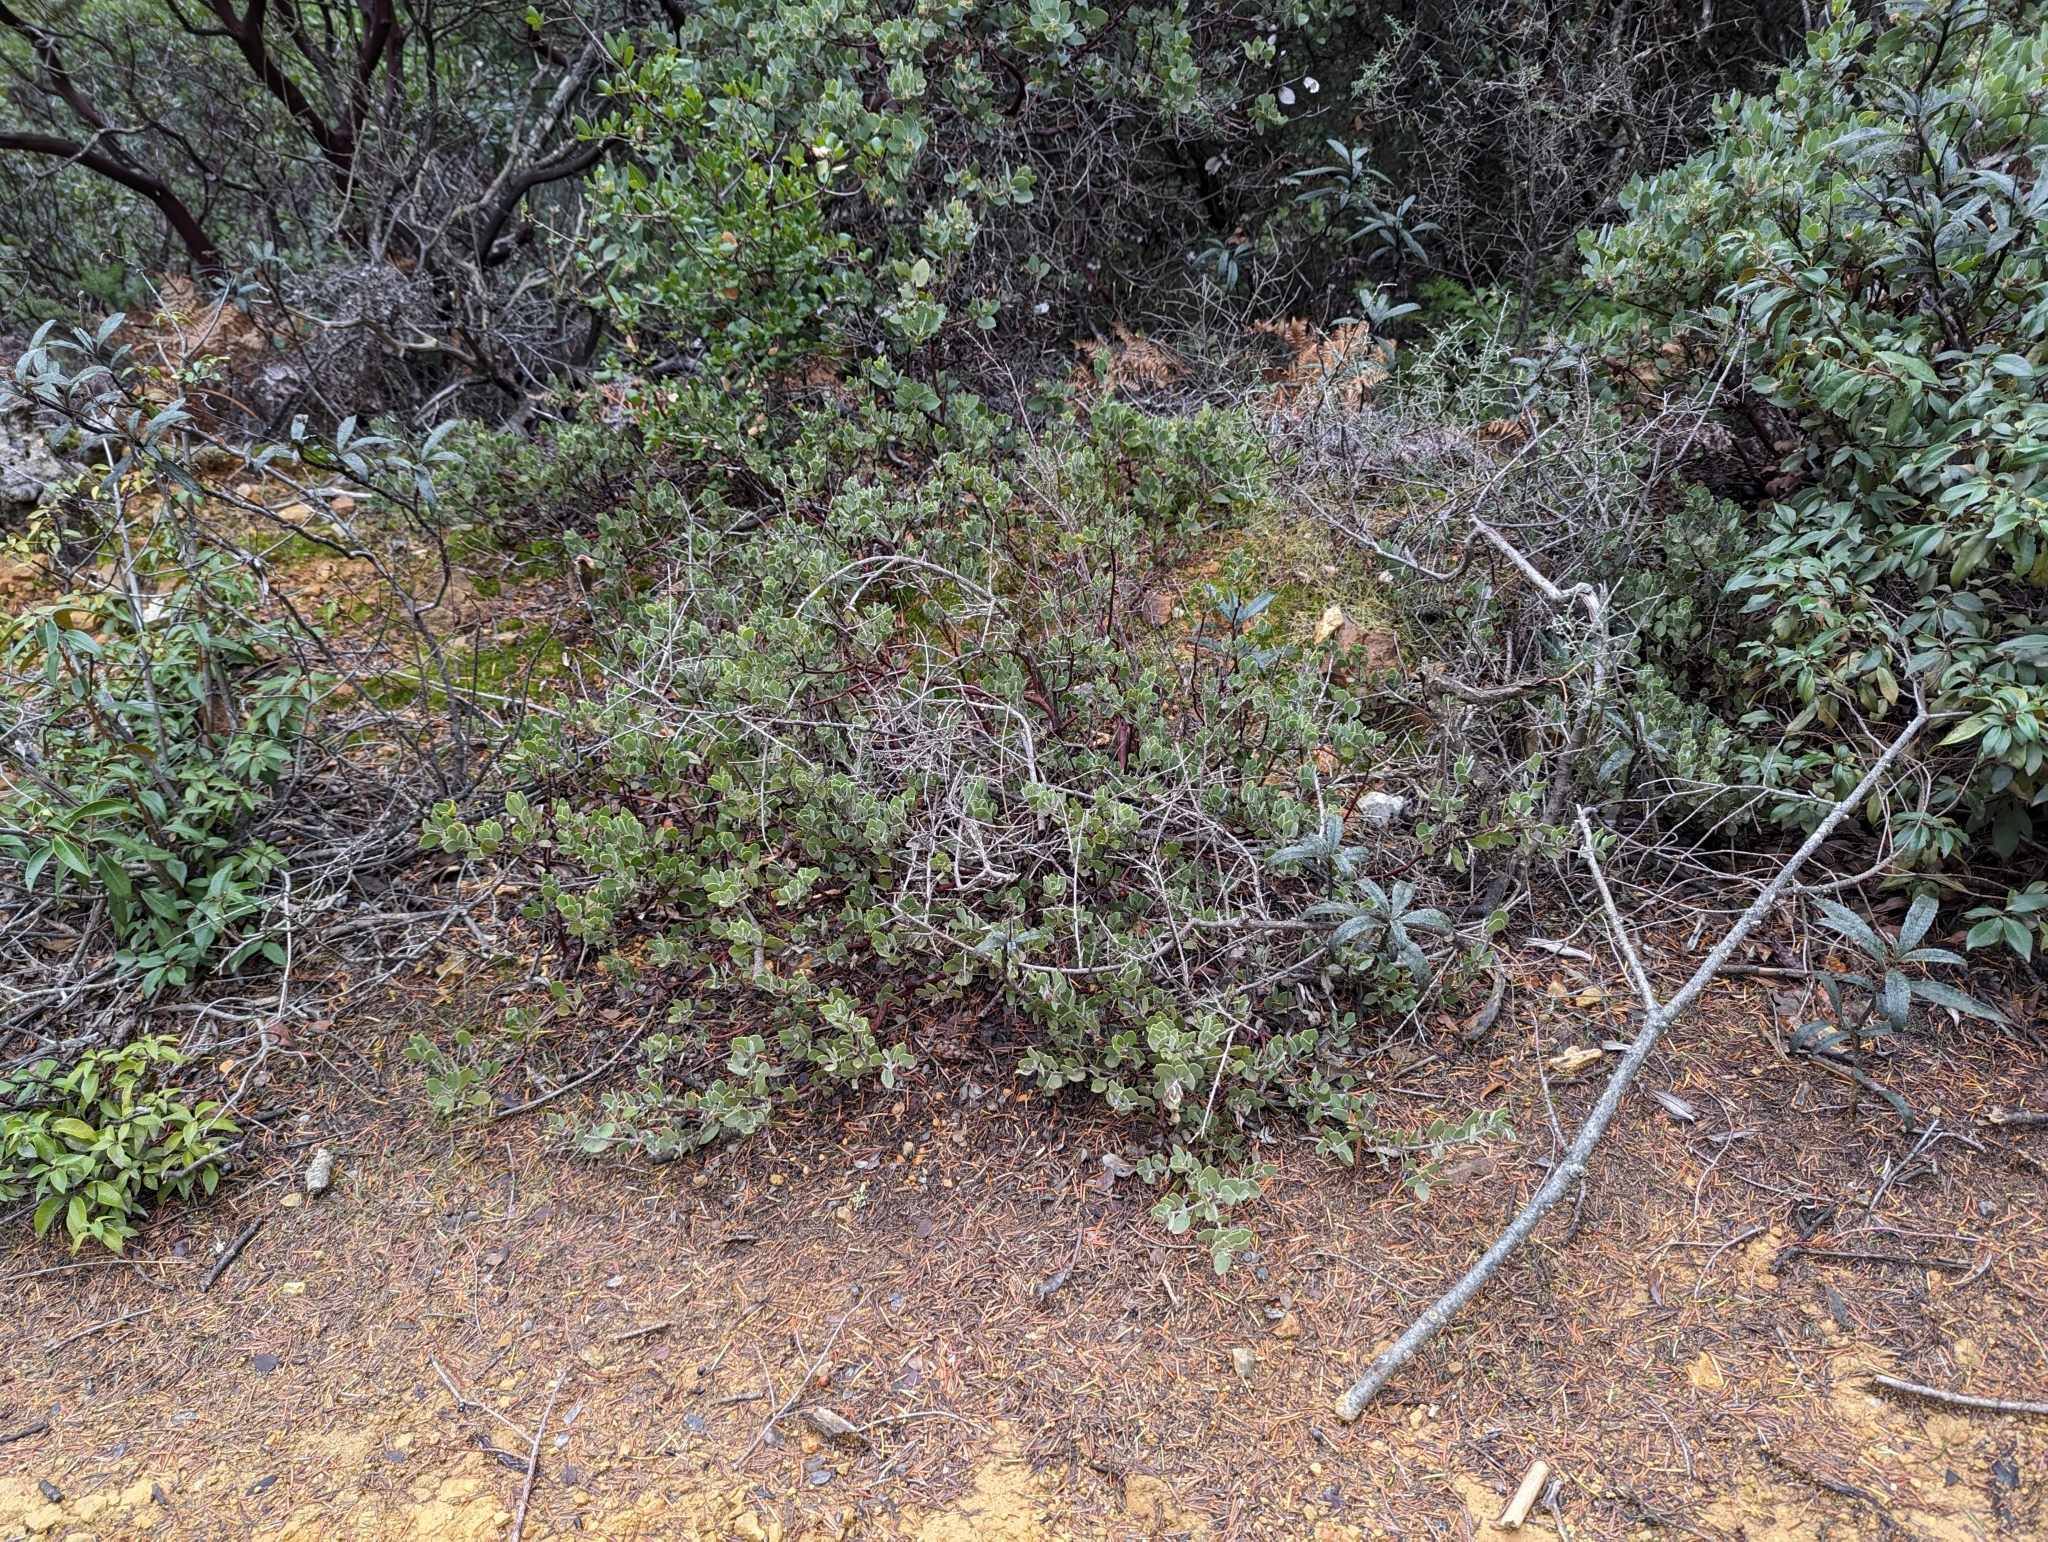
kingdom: Plantae
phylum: Tracheophyta
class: Magnoliopsida
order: Ericales
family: Ericaceae
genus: Arctostaphylos
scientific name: Arctostaphylos montana
